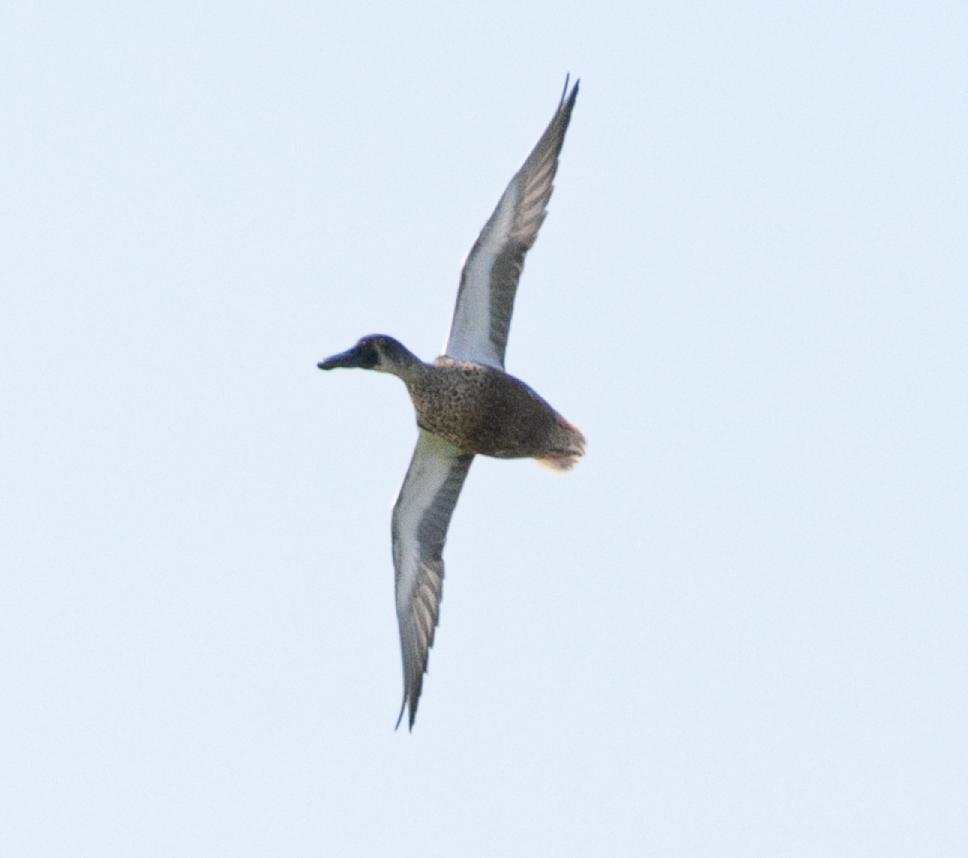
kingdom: Animalia
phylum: Chordata
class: Aves
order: Anseriformes
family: Anatidae
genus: Spatula
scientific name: Spatula clypeata
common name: Northern shoveler
